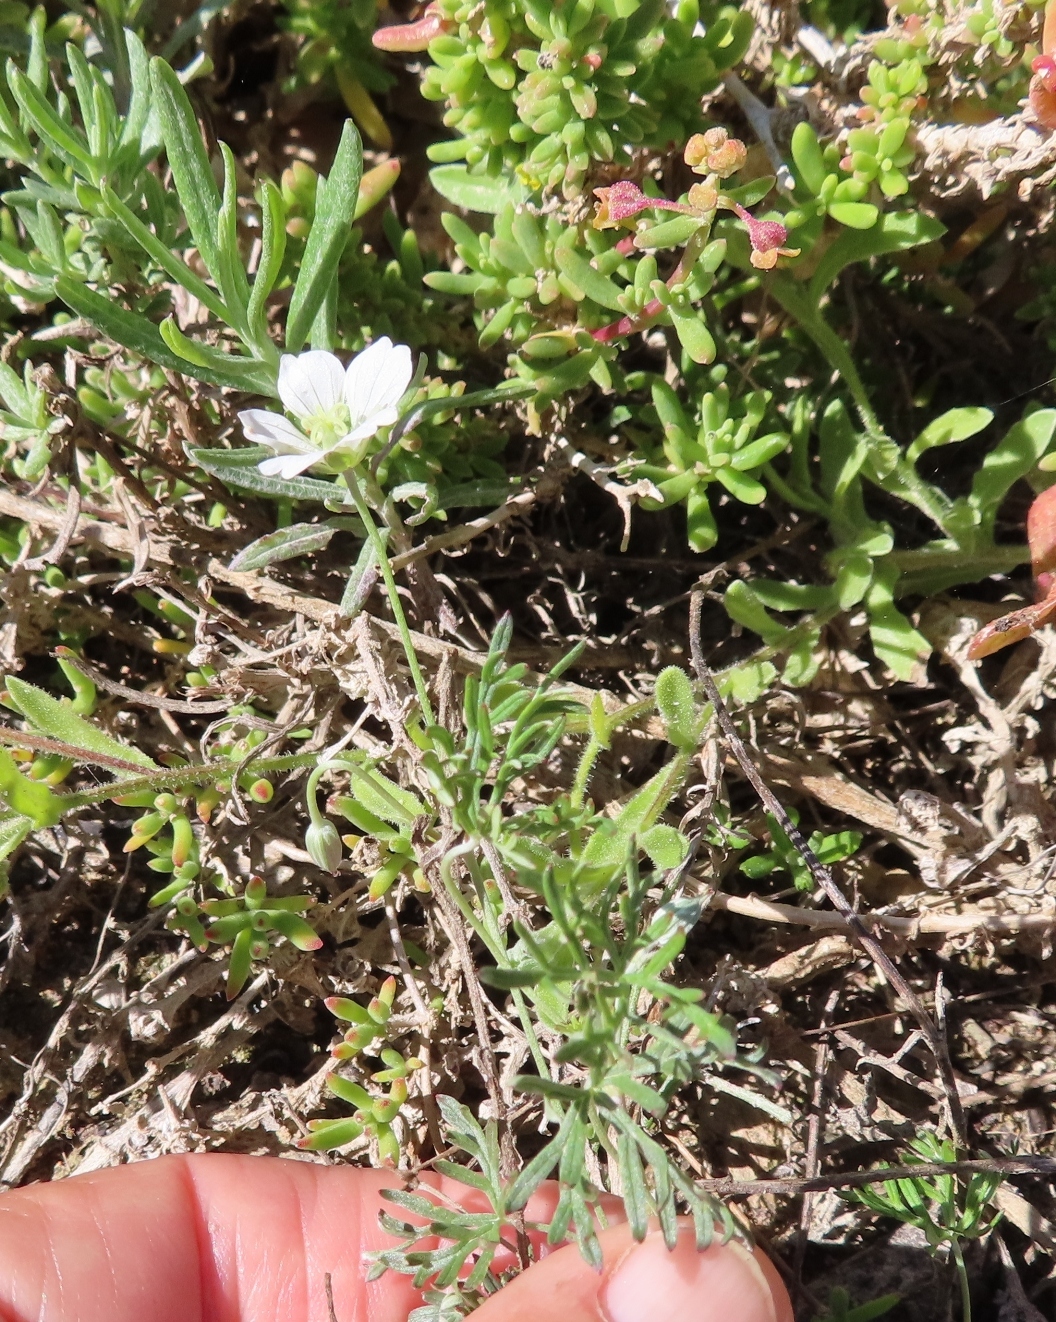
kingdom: Plantae
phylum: Tracheophyta
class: Magnoliopsida
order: Geraniales
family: Geraniaceae
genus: Geranium
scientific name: Geranium incanum
